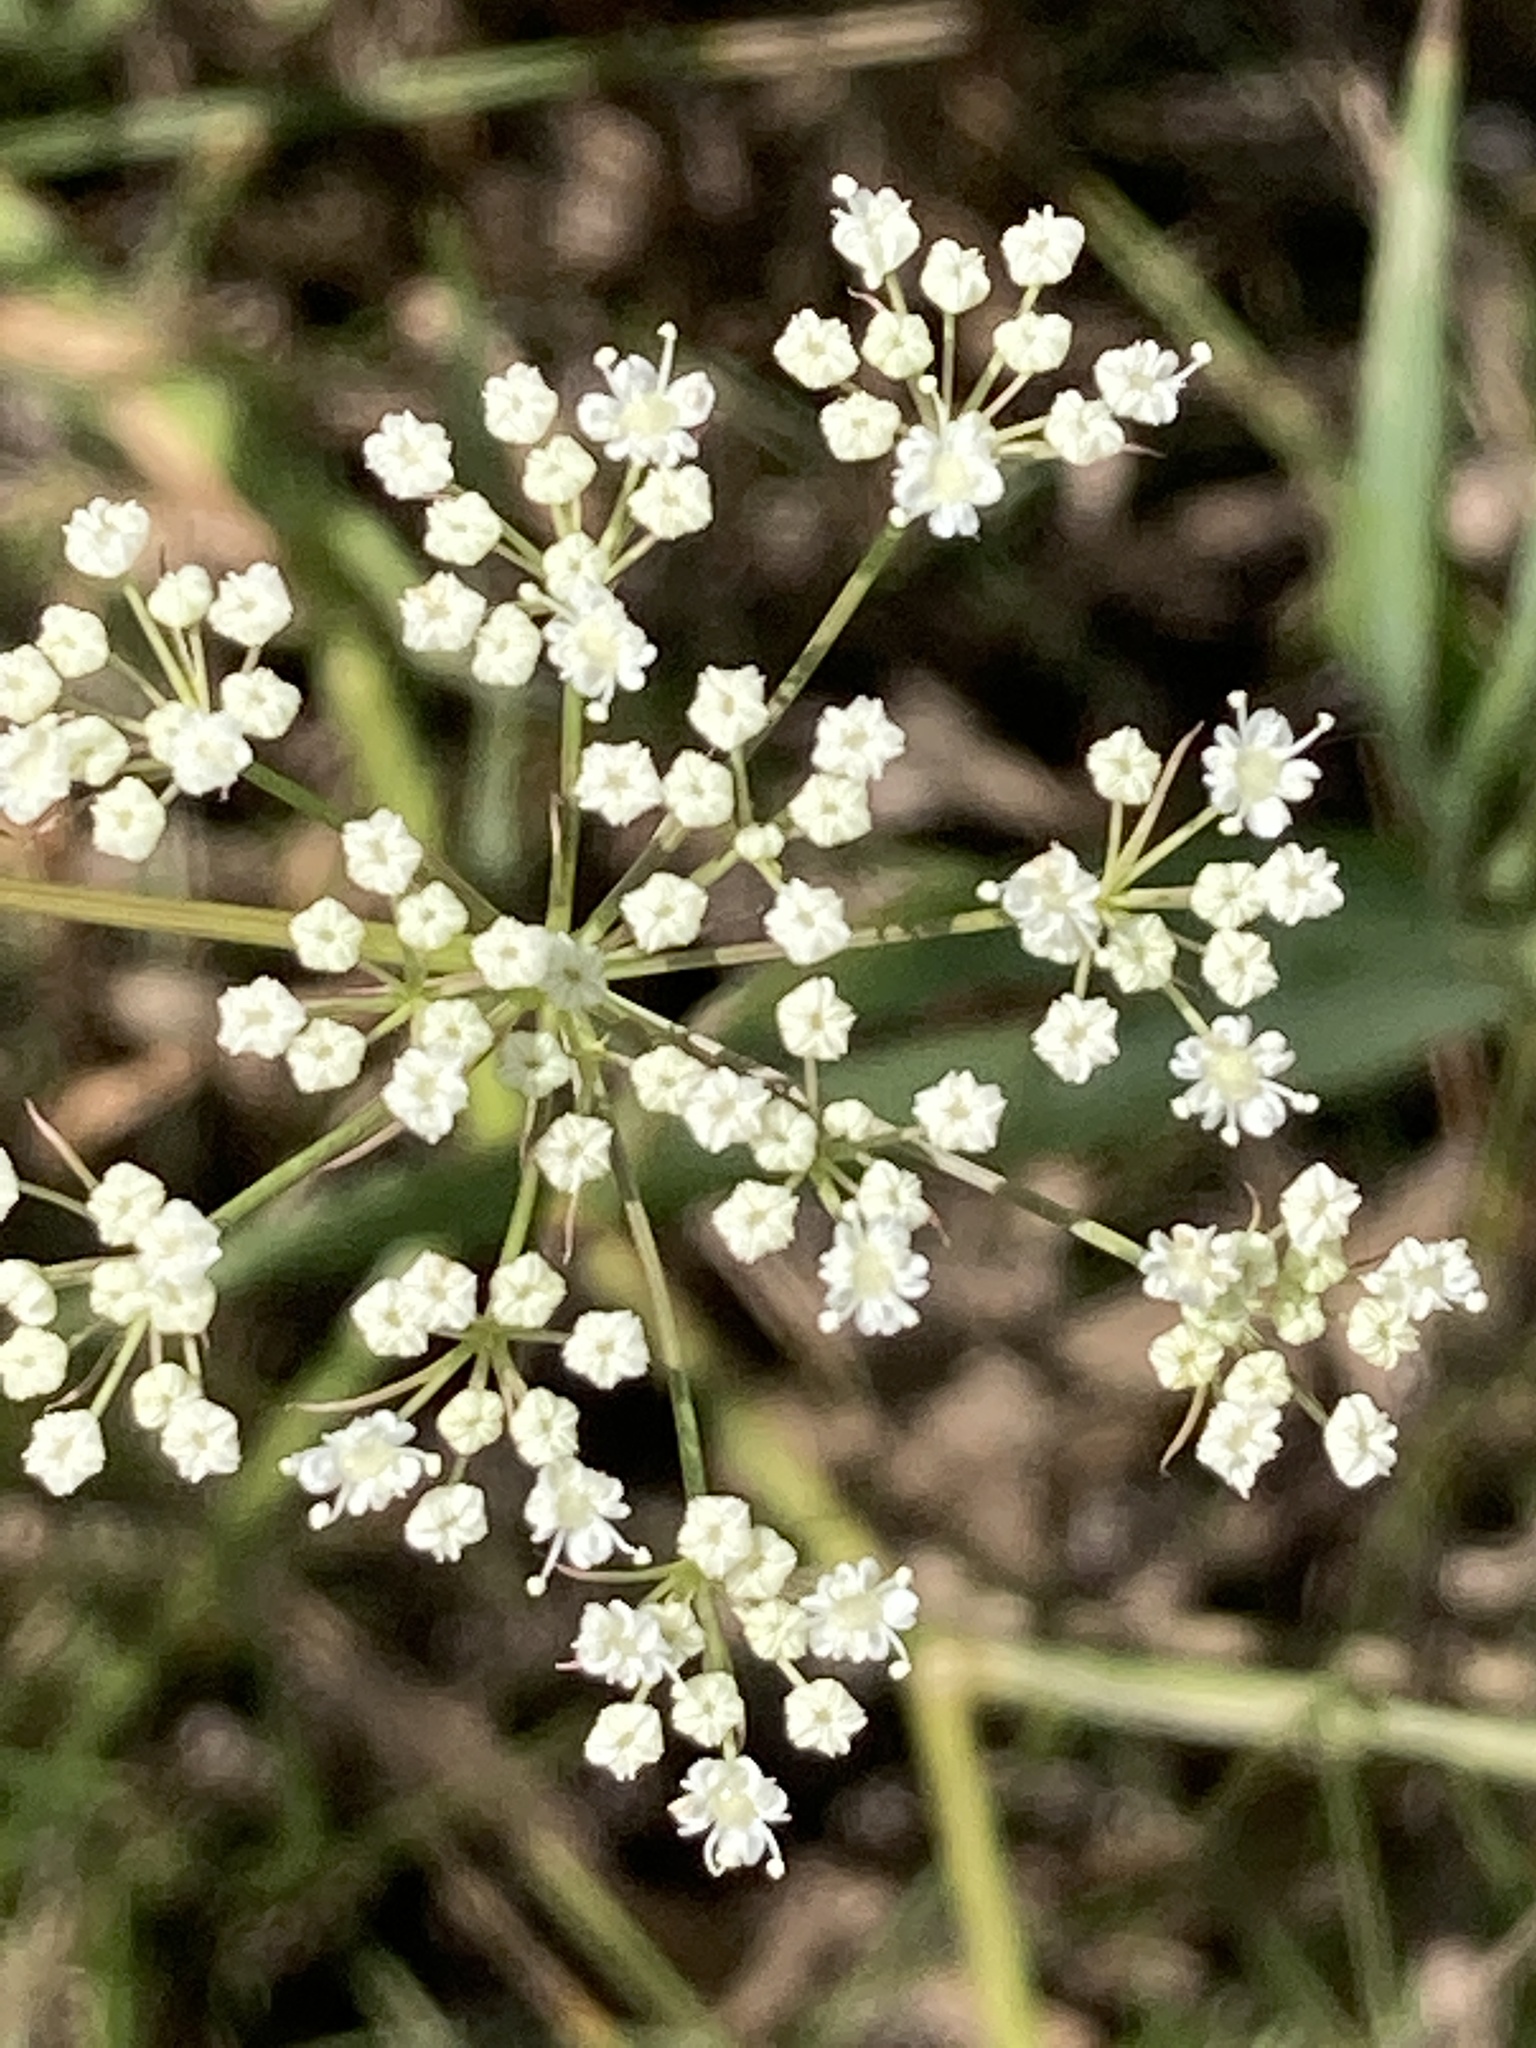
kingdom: Plantae
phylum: Tracheophyta
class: Magnoliopsida
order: Apiales
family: Apiaceae
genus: Falcaria
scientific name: Falcaria vulgaris
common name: Longleaf
